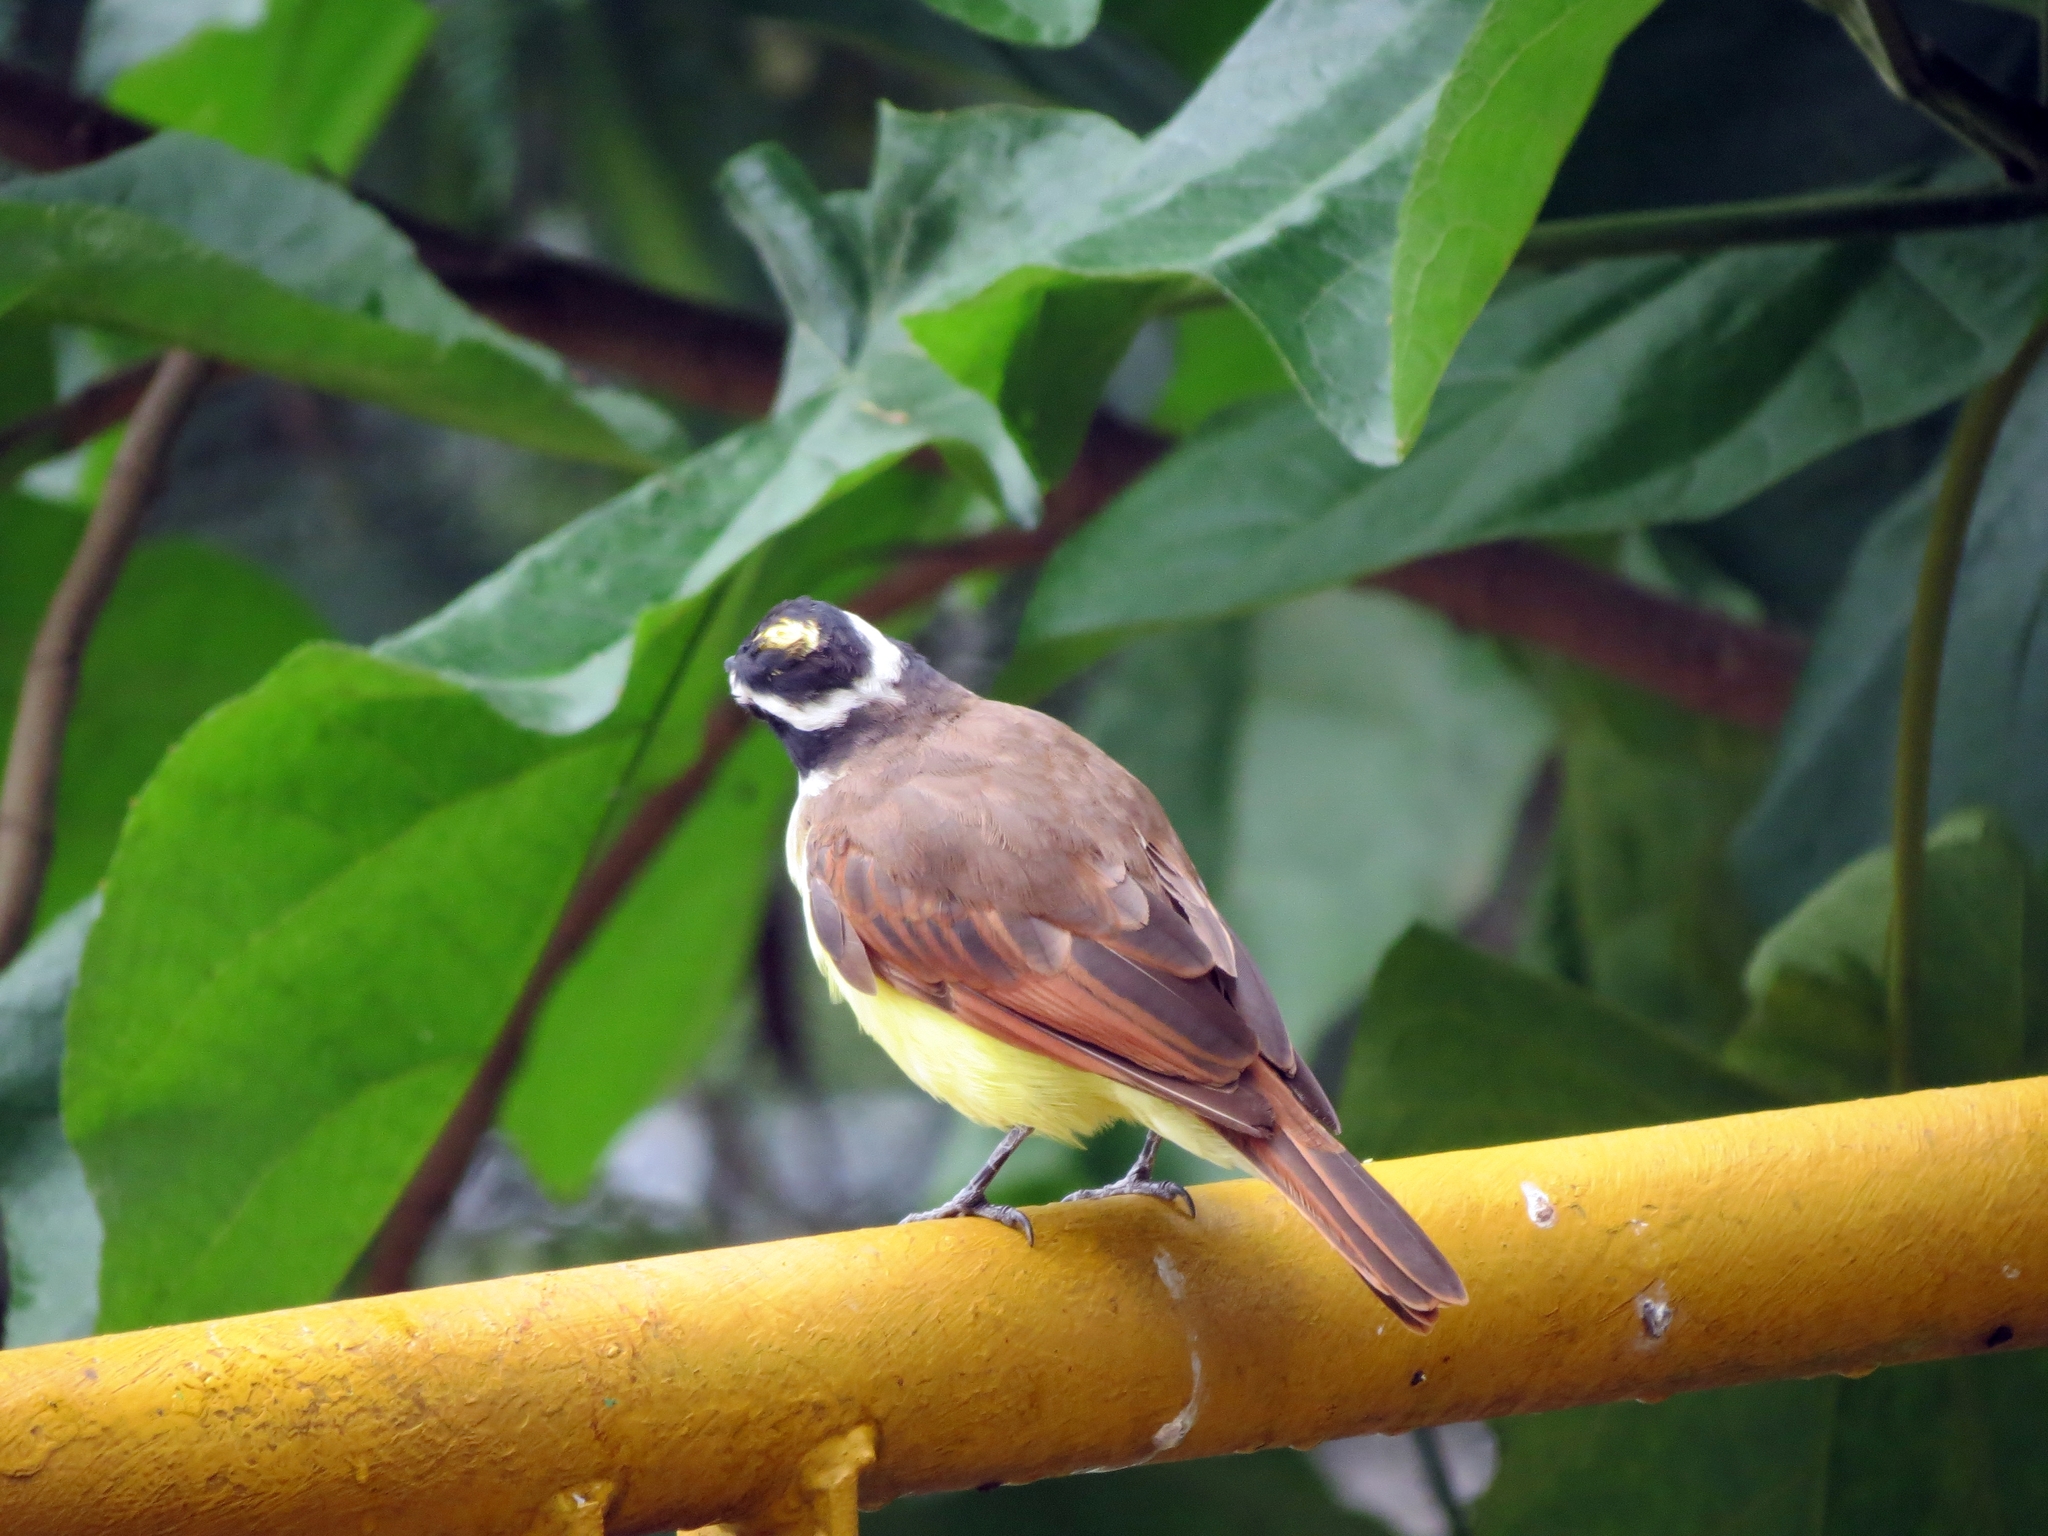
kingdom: Animalia
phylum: Chordata
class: Aves
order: Passeriformes
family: Tyrannidae
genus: Pitangus
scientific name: Pitangus sulphuratus
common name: Great kiskadee
